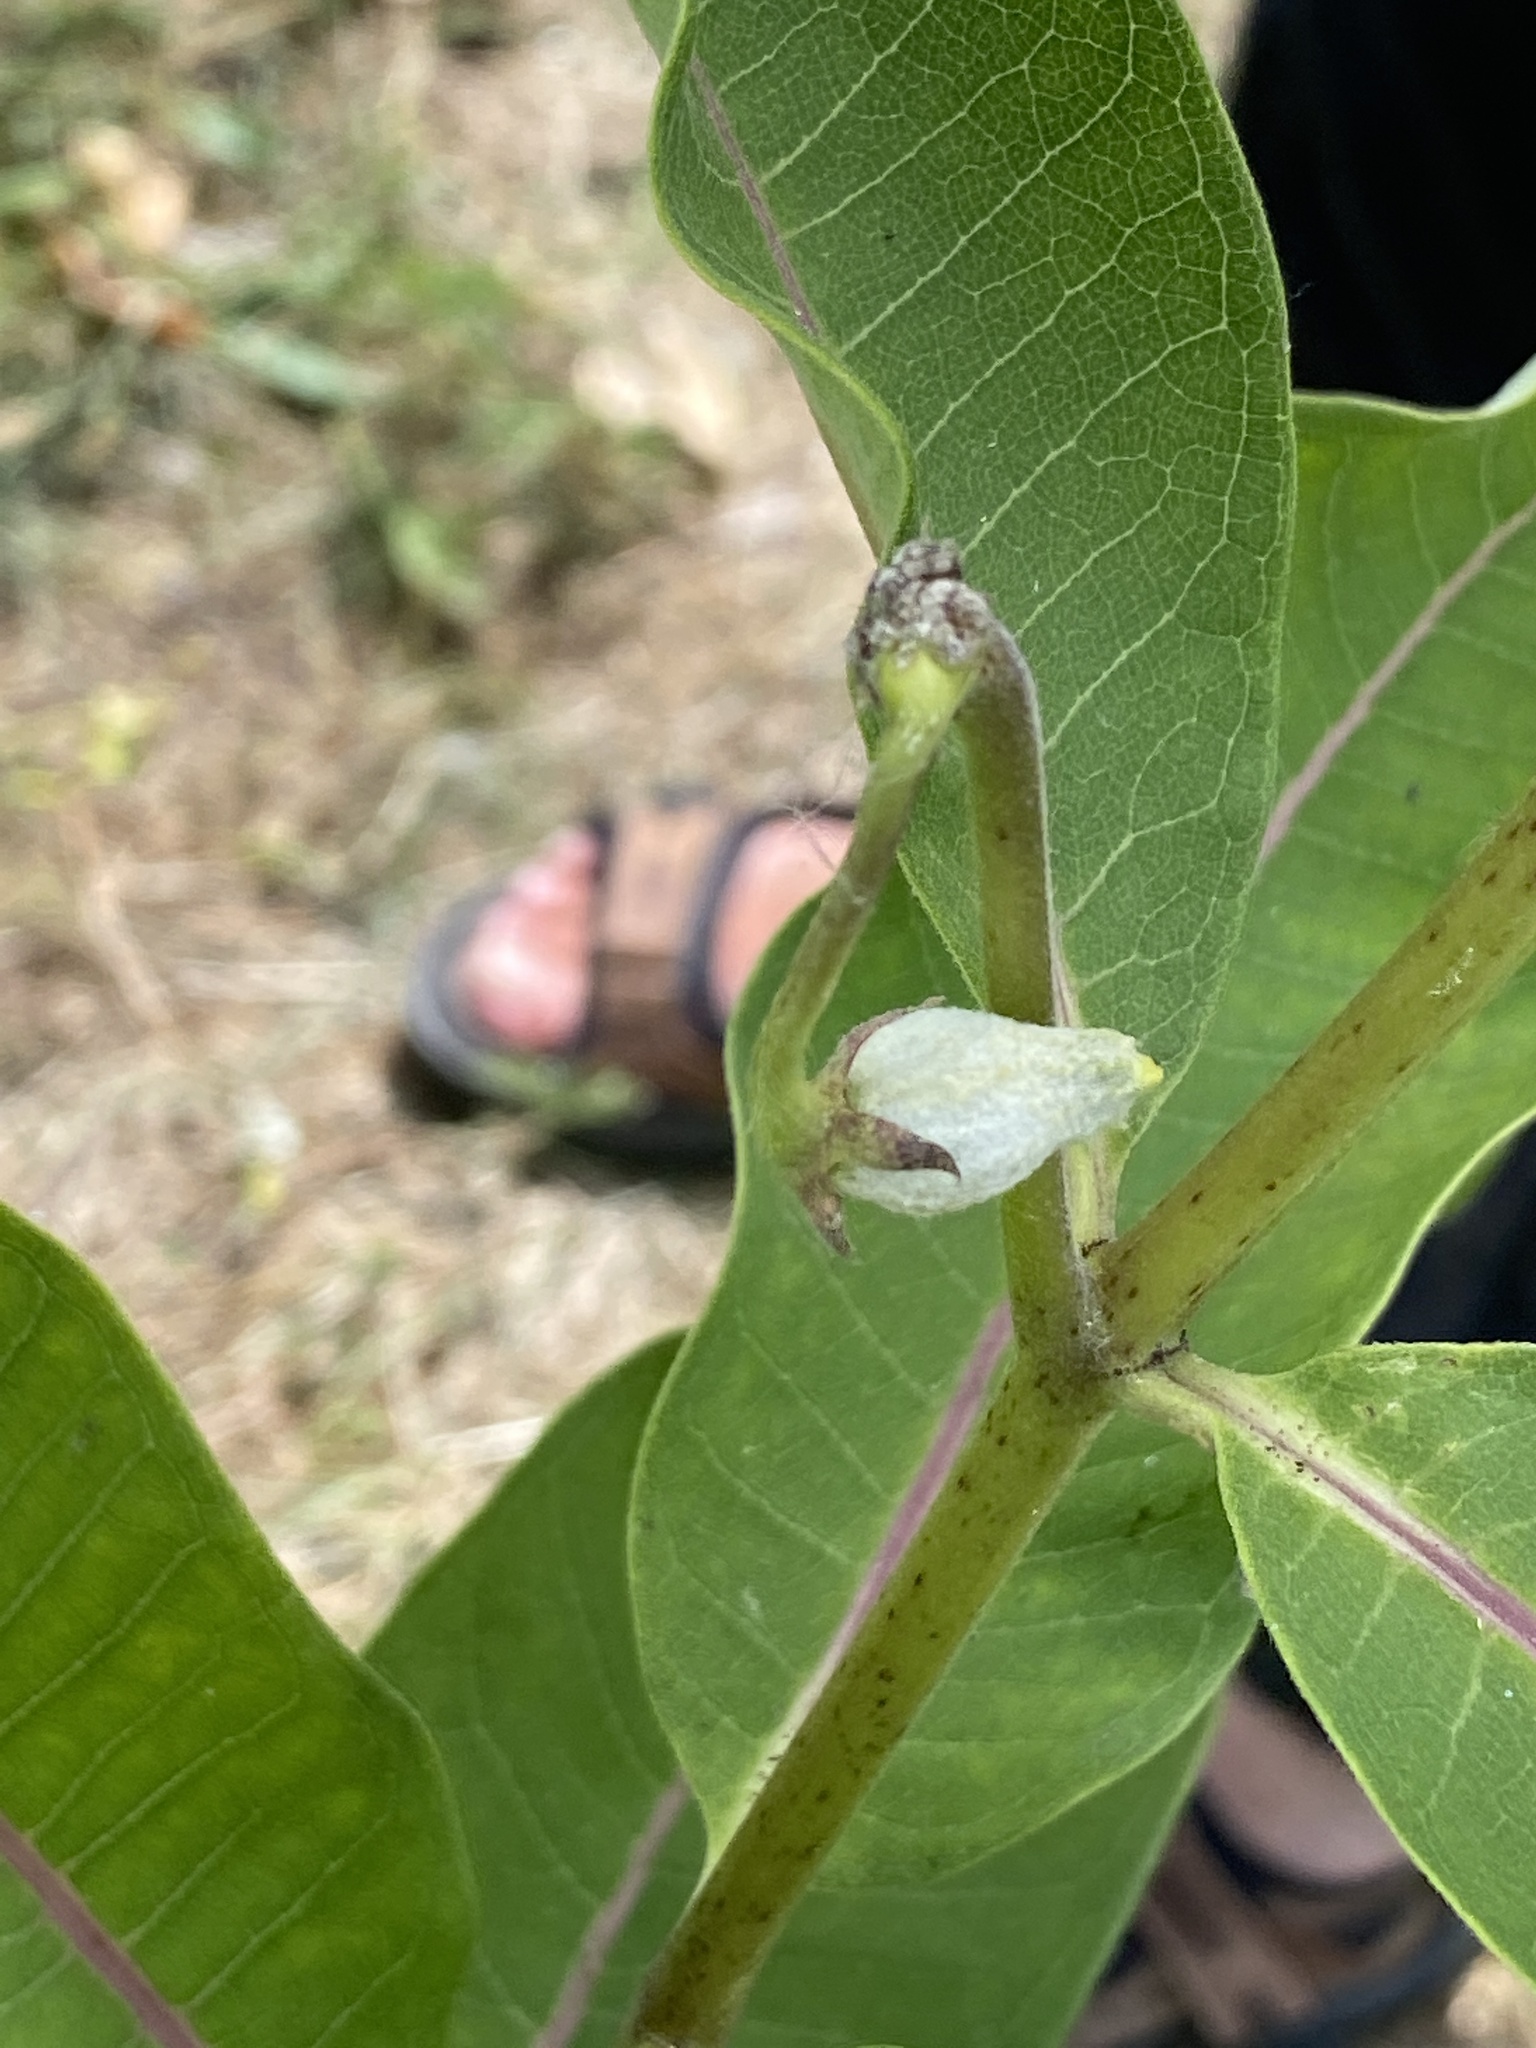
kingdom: Plantae
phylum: Tracheophyta
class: Magnoliopsida
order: Gentianales
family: Apocynaceae
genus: Asclepias
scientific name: Asclepias syriaca
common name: Common milkweed
